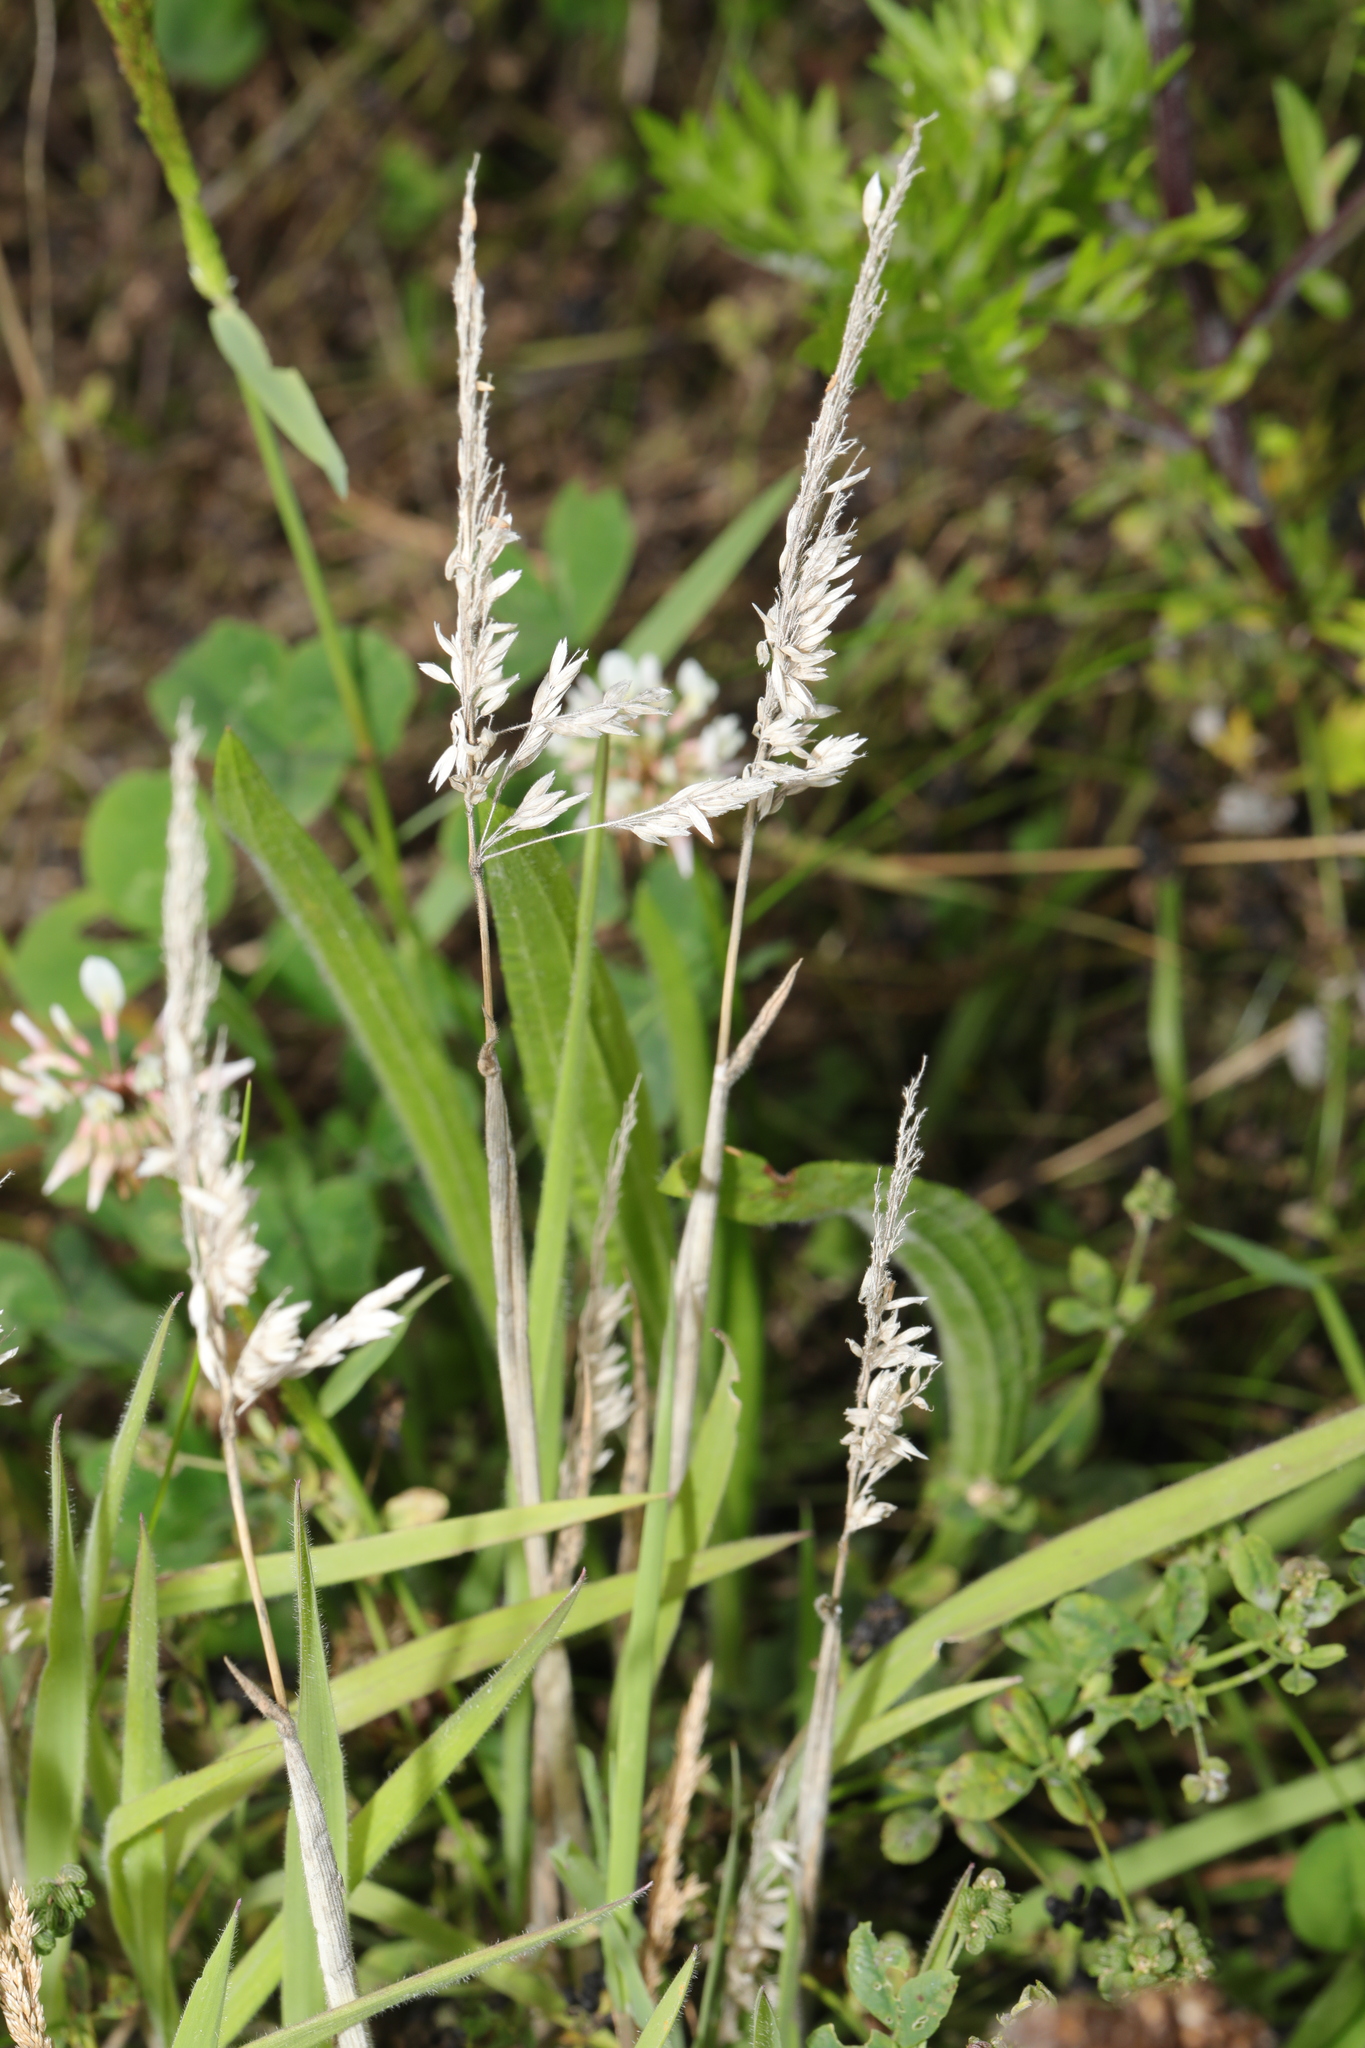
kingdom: Plantae
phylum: Tracheophyta
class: Liliopsida
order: Poales
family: Poaceae
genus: Holcus
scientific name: Holcus lanatus
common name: Yorkshire-fog
